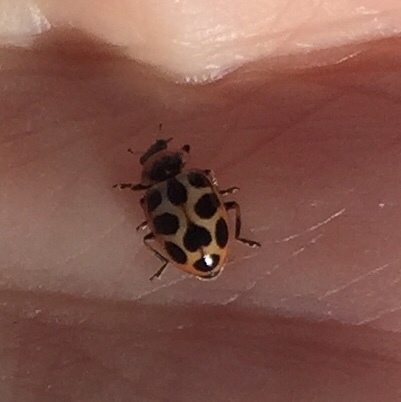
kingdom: Animalia
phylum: Arthropoda
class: Insecta
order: Coleoptera
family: Coccinellidae
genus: Naemia
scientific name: Naemia seriata
